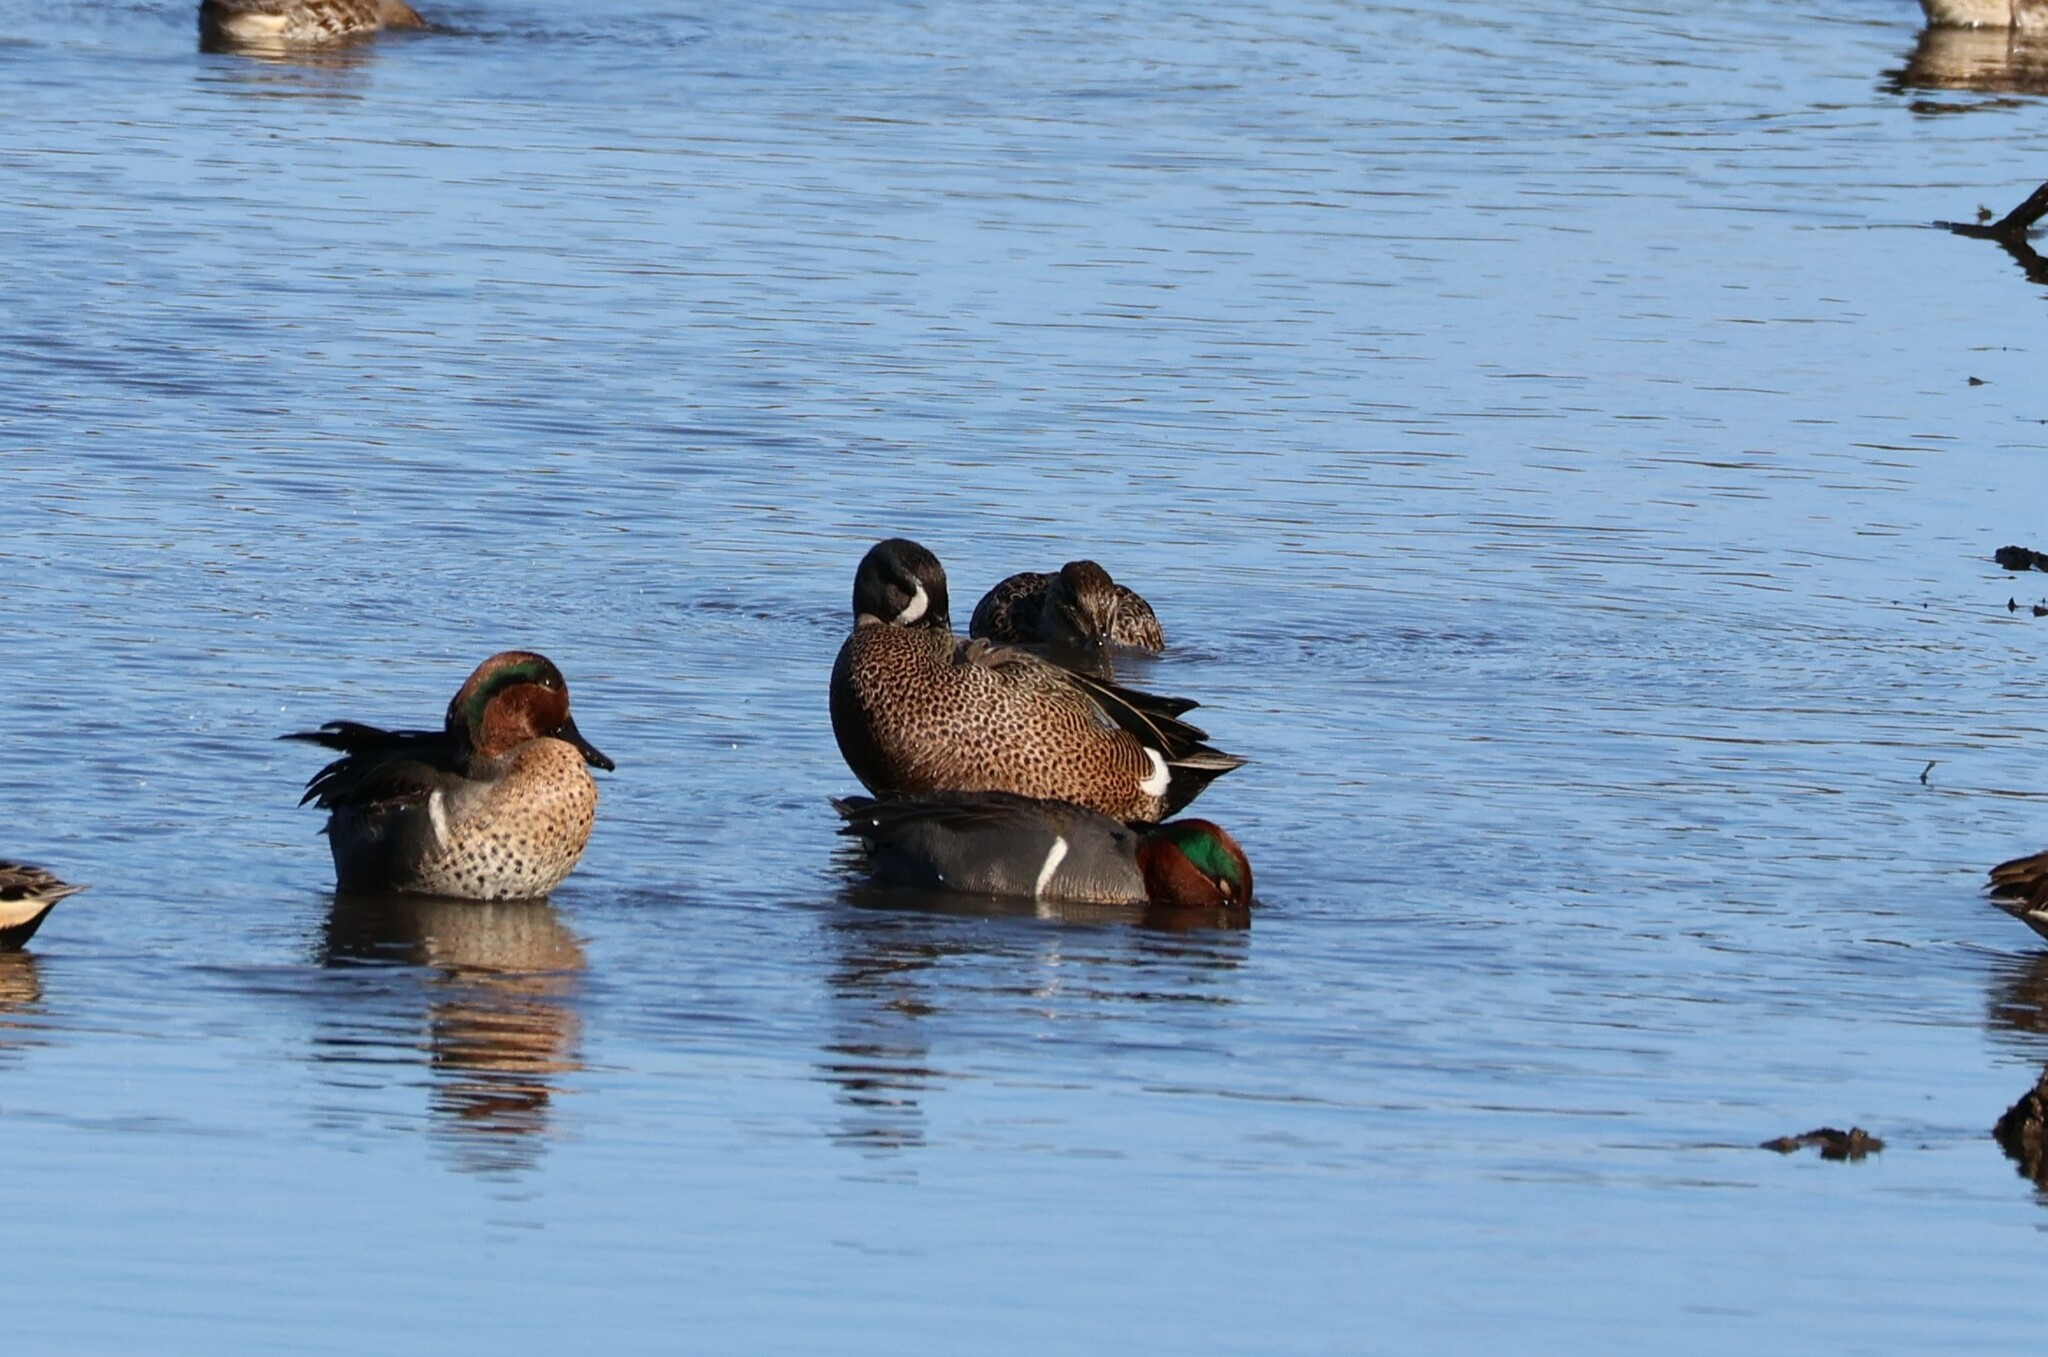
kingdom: Animalia
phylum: Chordata
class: Aves
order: Anseriformes
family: Anatidae
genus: Spatula
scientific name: Spatula discors
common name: Blue-winged teal
